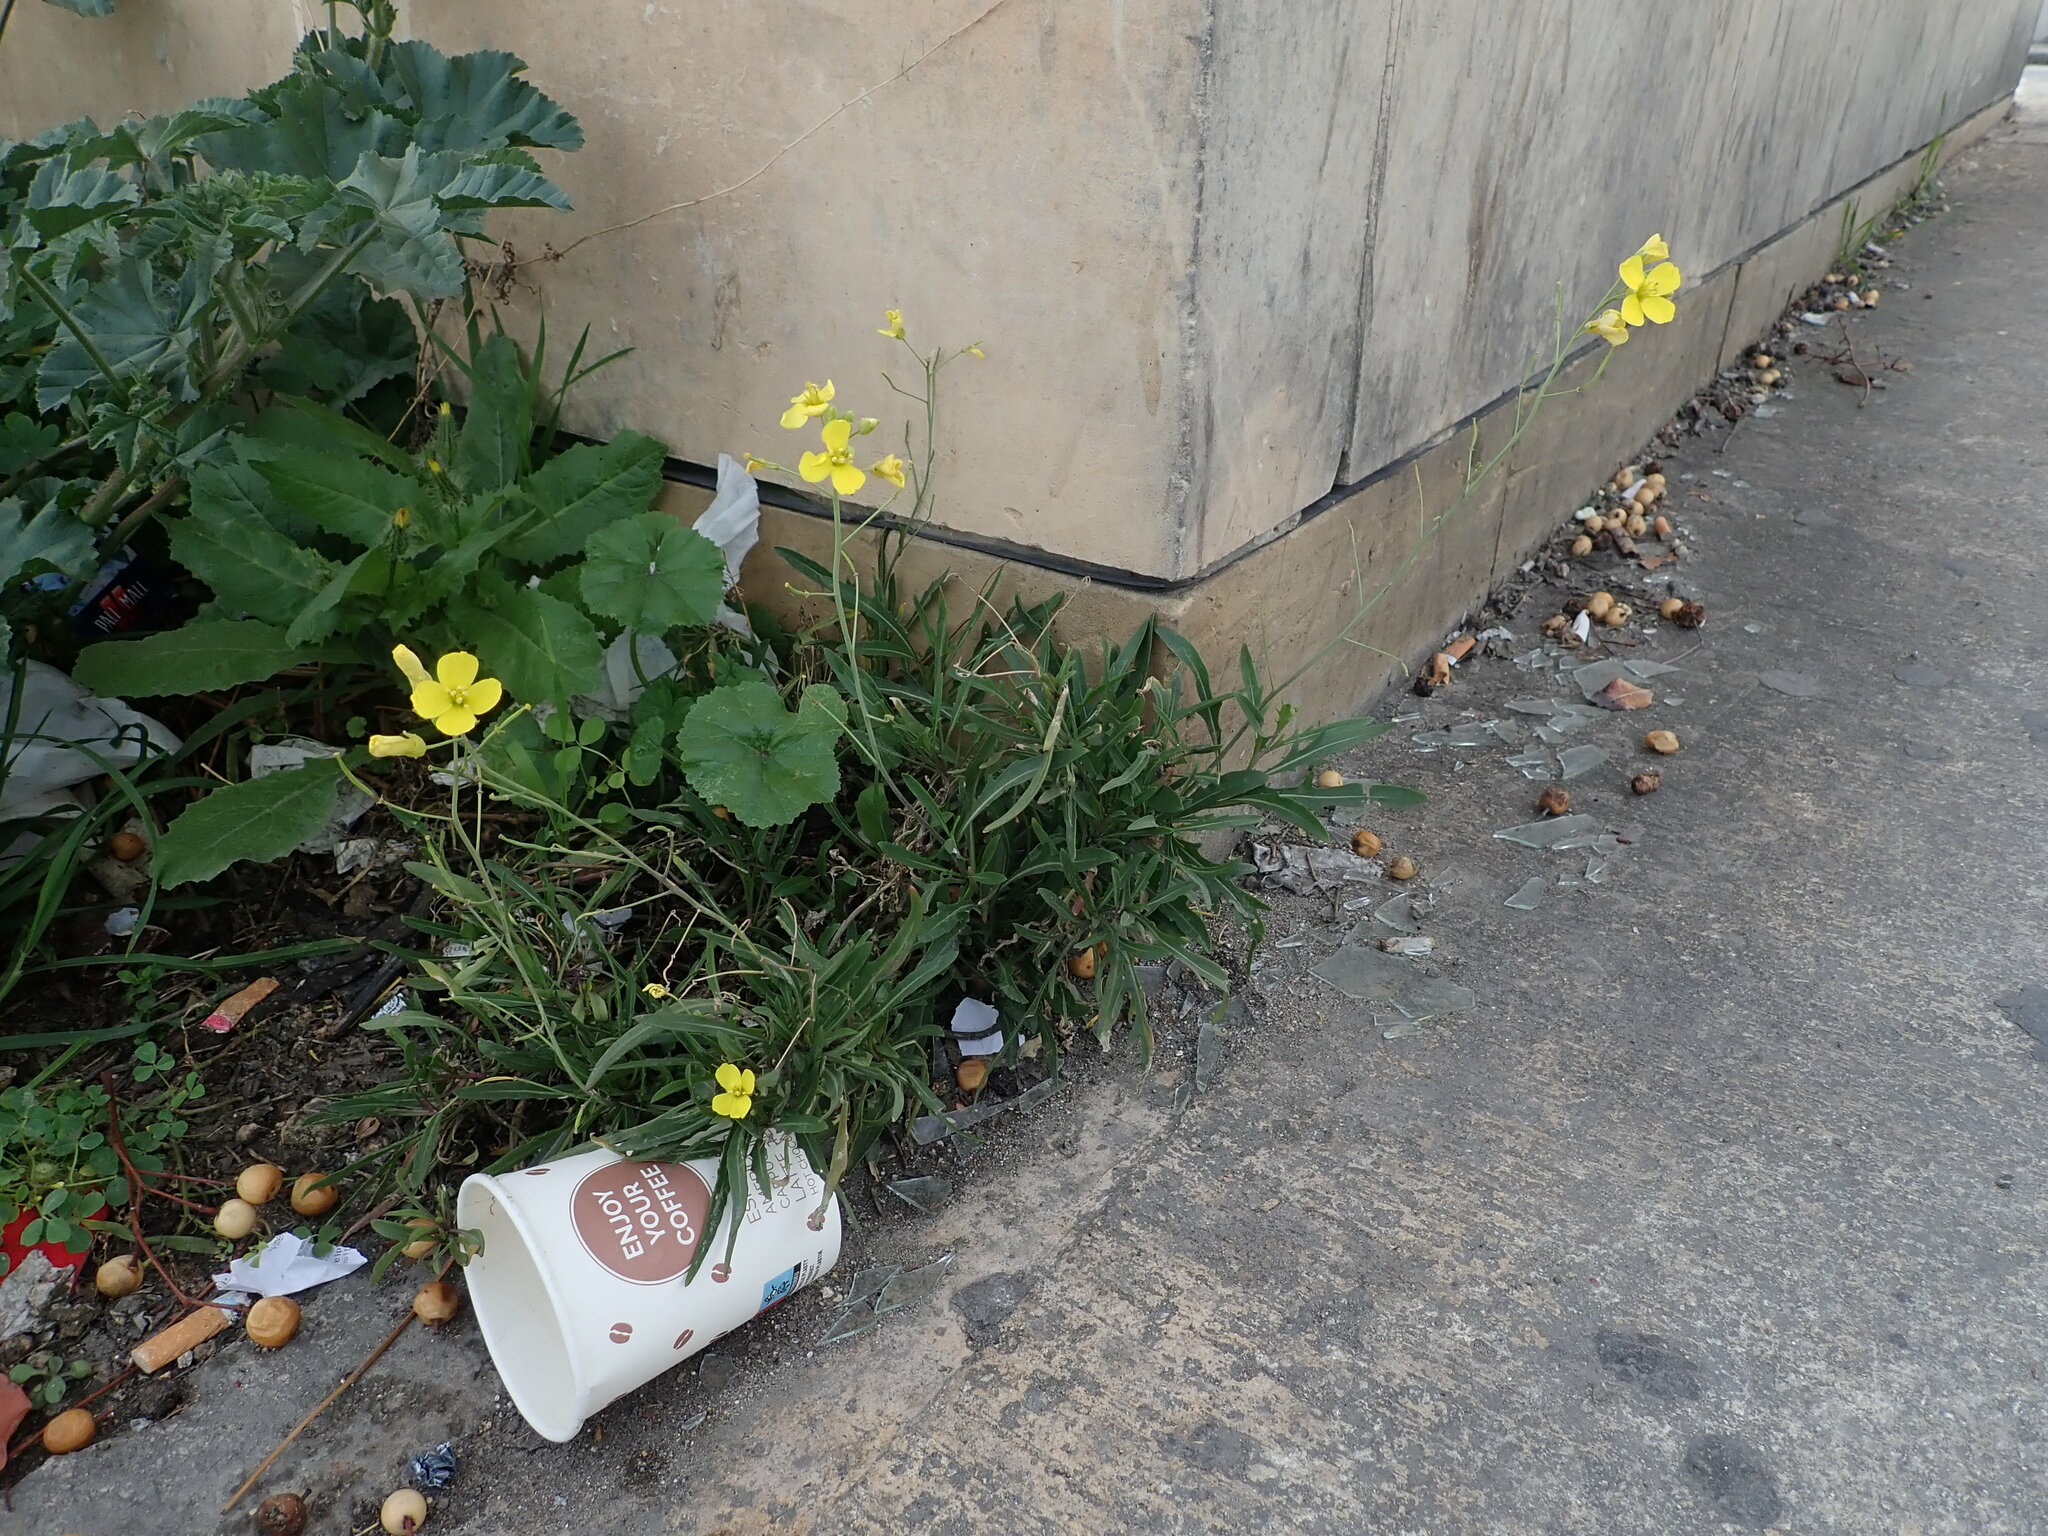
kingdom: Plantae
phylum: Tracheophyta
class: Magnoliopsida
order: Brassicales
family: Brassicaceae
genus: Diplotaxis
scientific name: Diplotaxis tenuifolia
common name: Perennial wall-rocket
